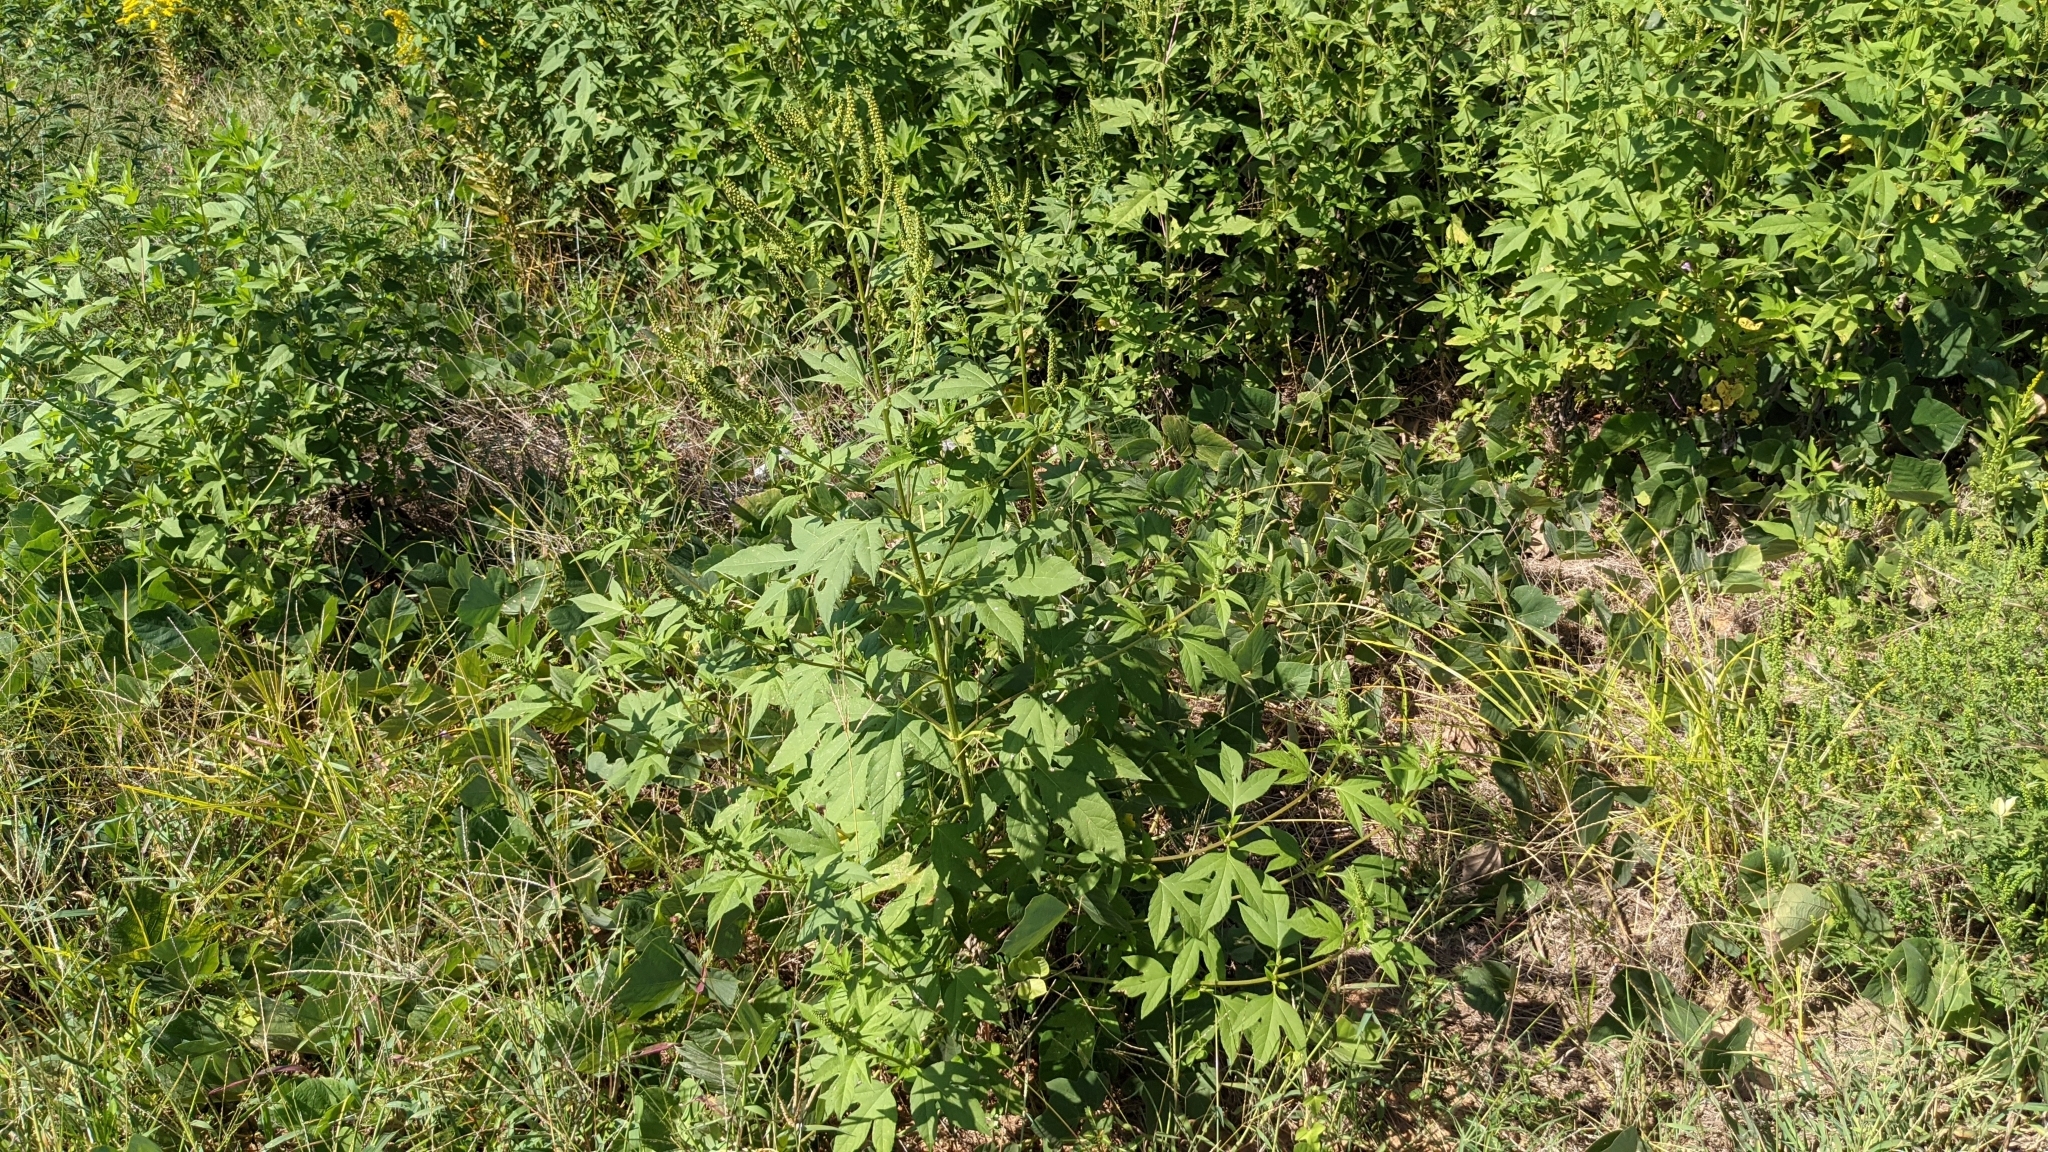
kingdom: Plantae
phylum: Tracheophyta
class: Magnoliopsida
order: Asterales
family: Asteraceae
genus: Ambrosia
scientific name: Ambrosia trifida
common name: Giant ragweed
